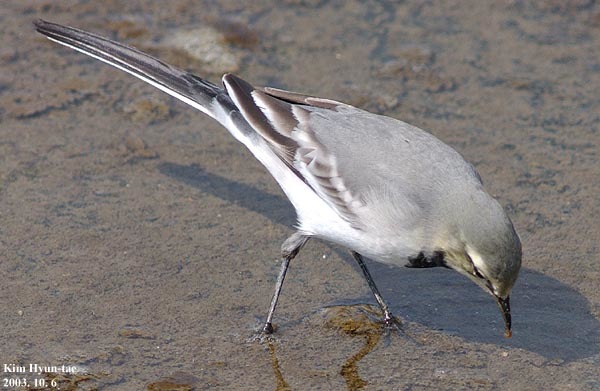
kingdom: Animalia
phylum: Chordata
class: Aves
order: Passeriformes
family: Motacillidae
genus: Motacilla
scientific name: Motacilla alba
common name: White wagtail
